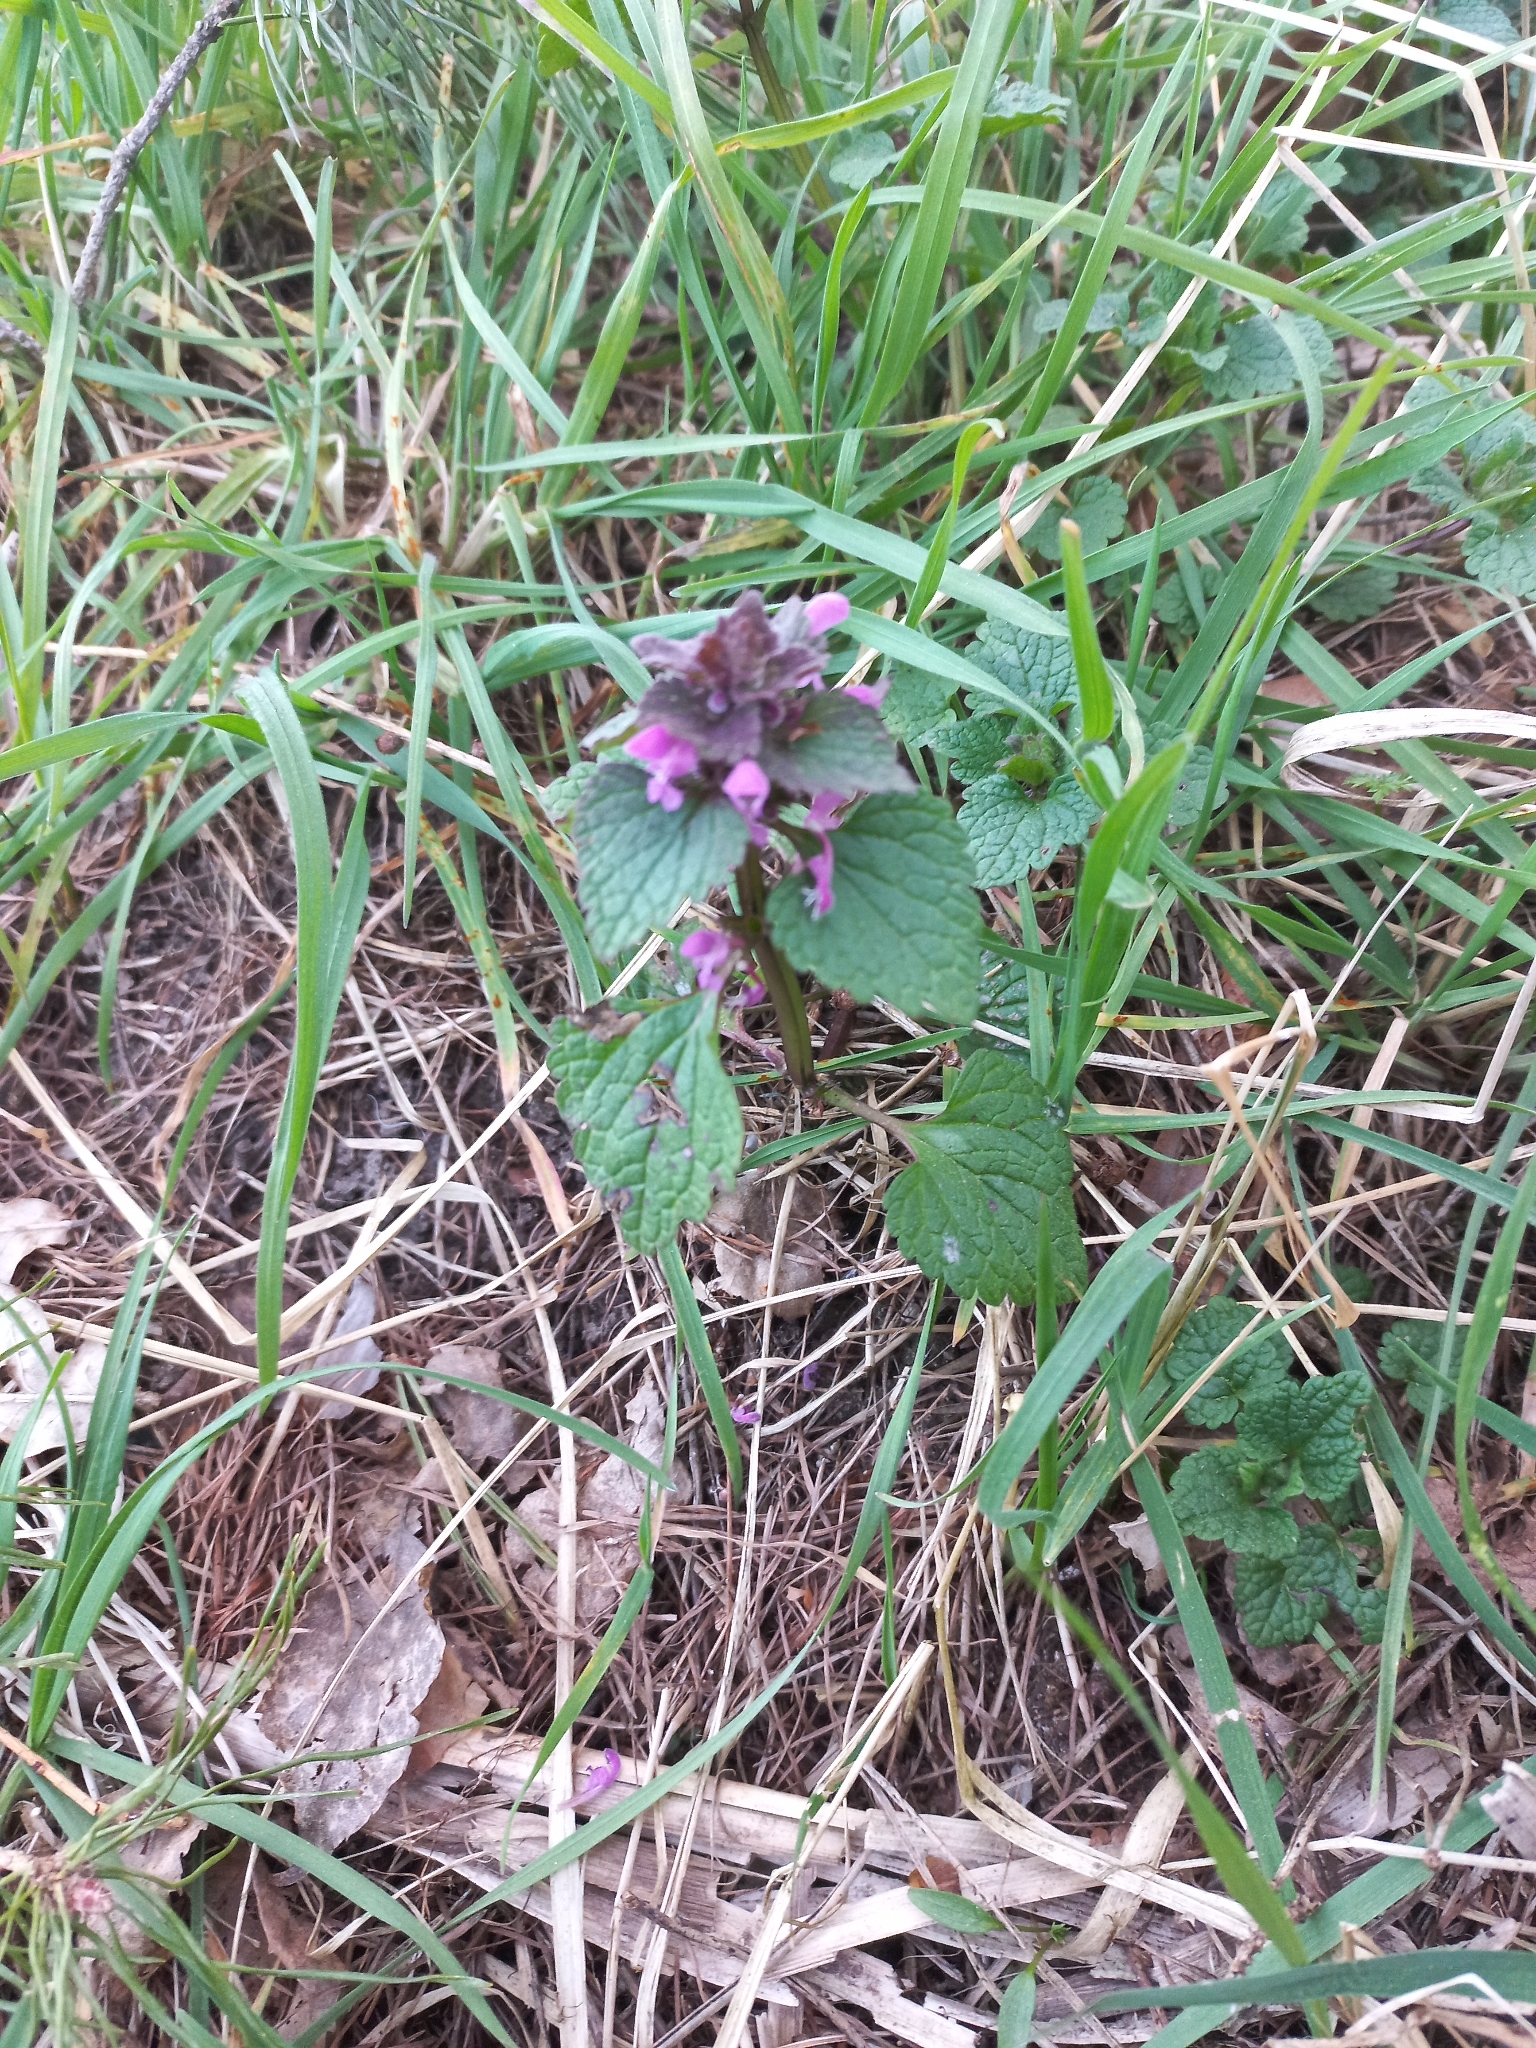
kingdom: Plantae
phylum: Tracheophyta
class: Magnoliopsida
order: Lamiales
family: Lamiaceae
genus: Lamium
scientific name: Lamium purpureum
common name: Red dead-nettle
